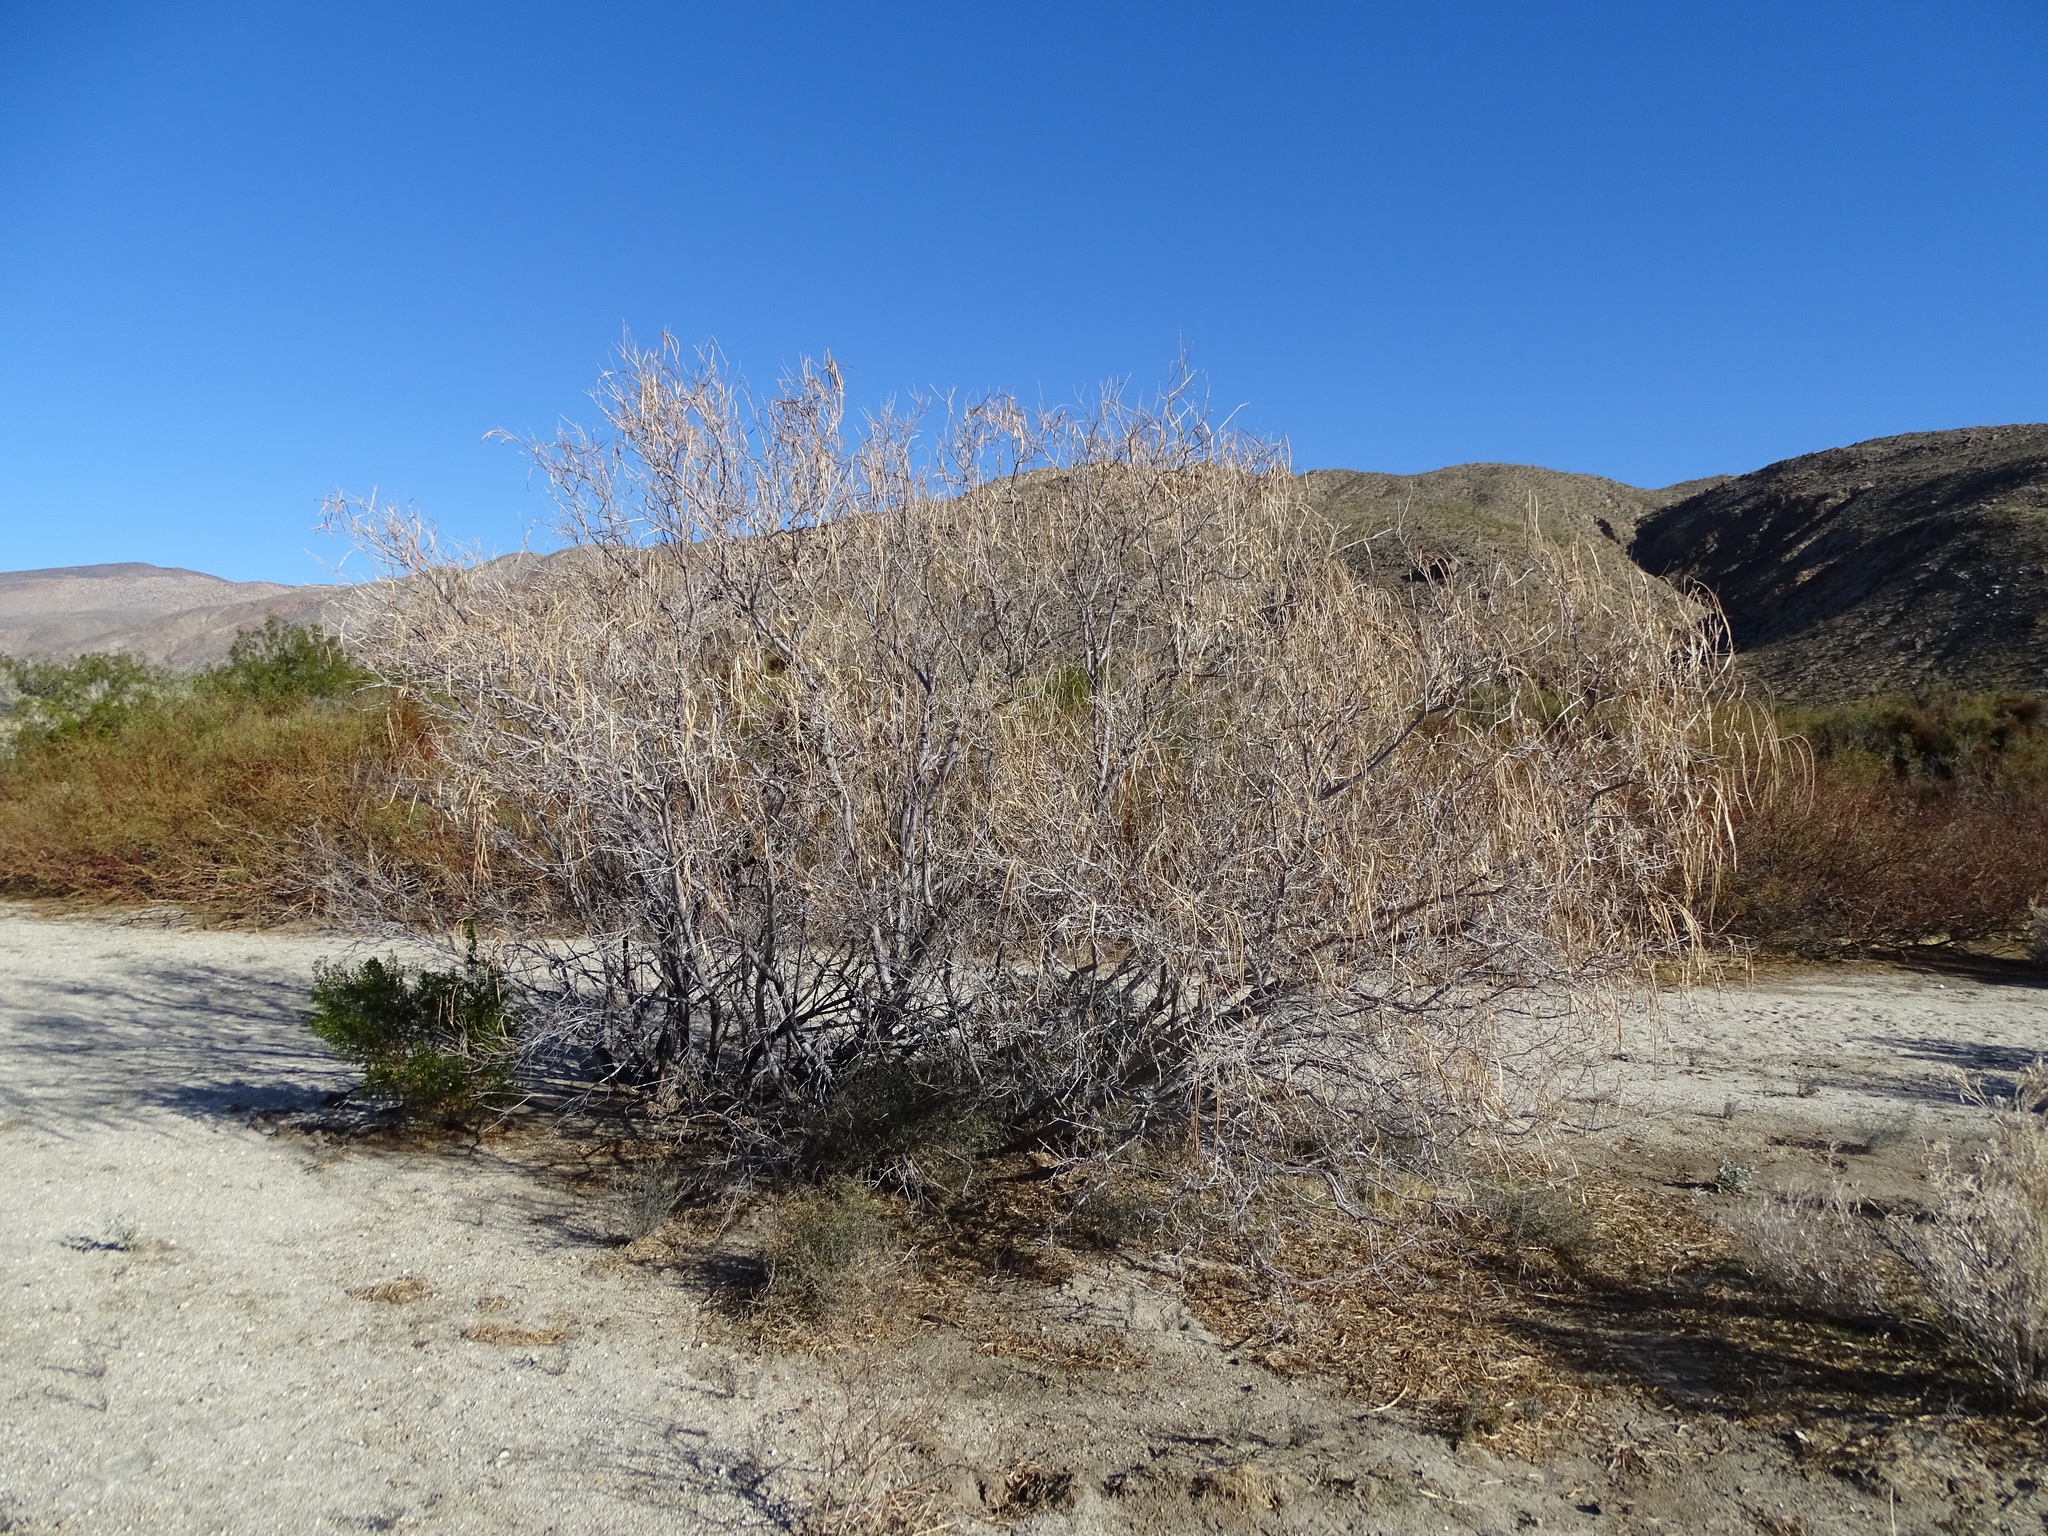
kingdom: Plantae
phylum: Tracheophyta
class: Magnoliopsida
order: Lamiales
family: Bignoniaceae
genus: Chilopsis
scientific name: Chilopsis linearis
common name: Desert-willow
